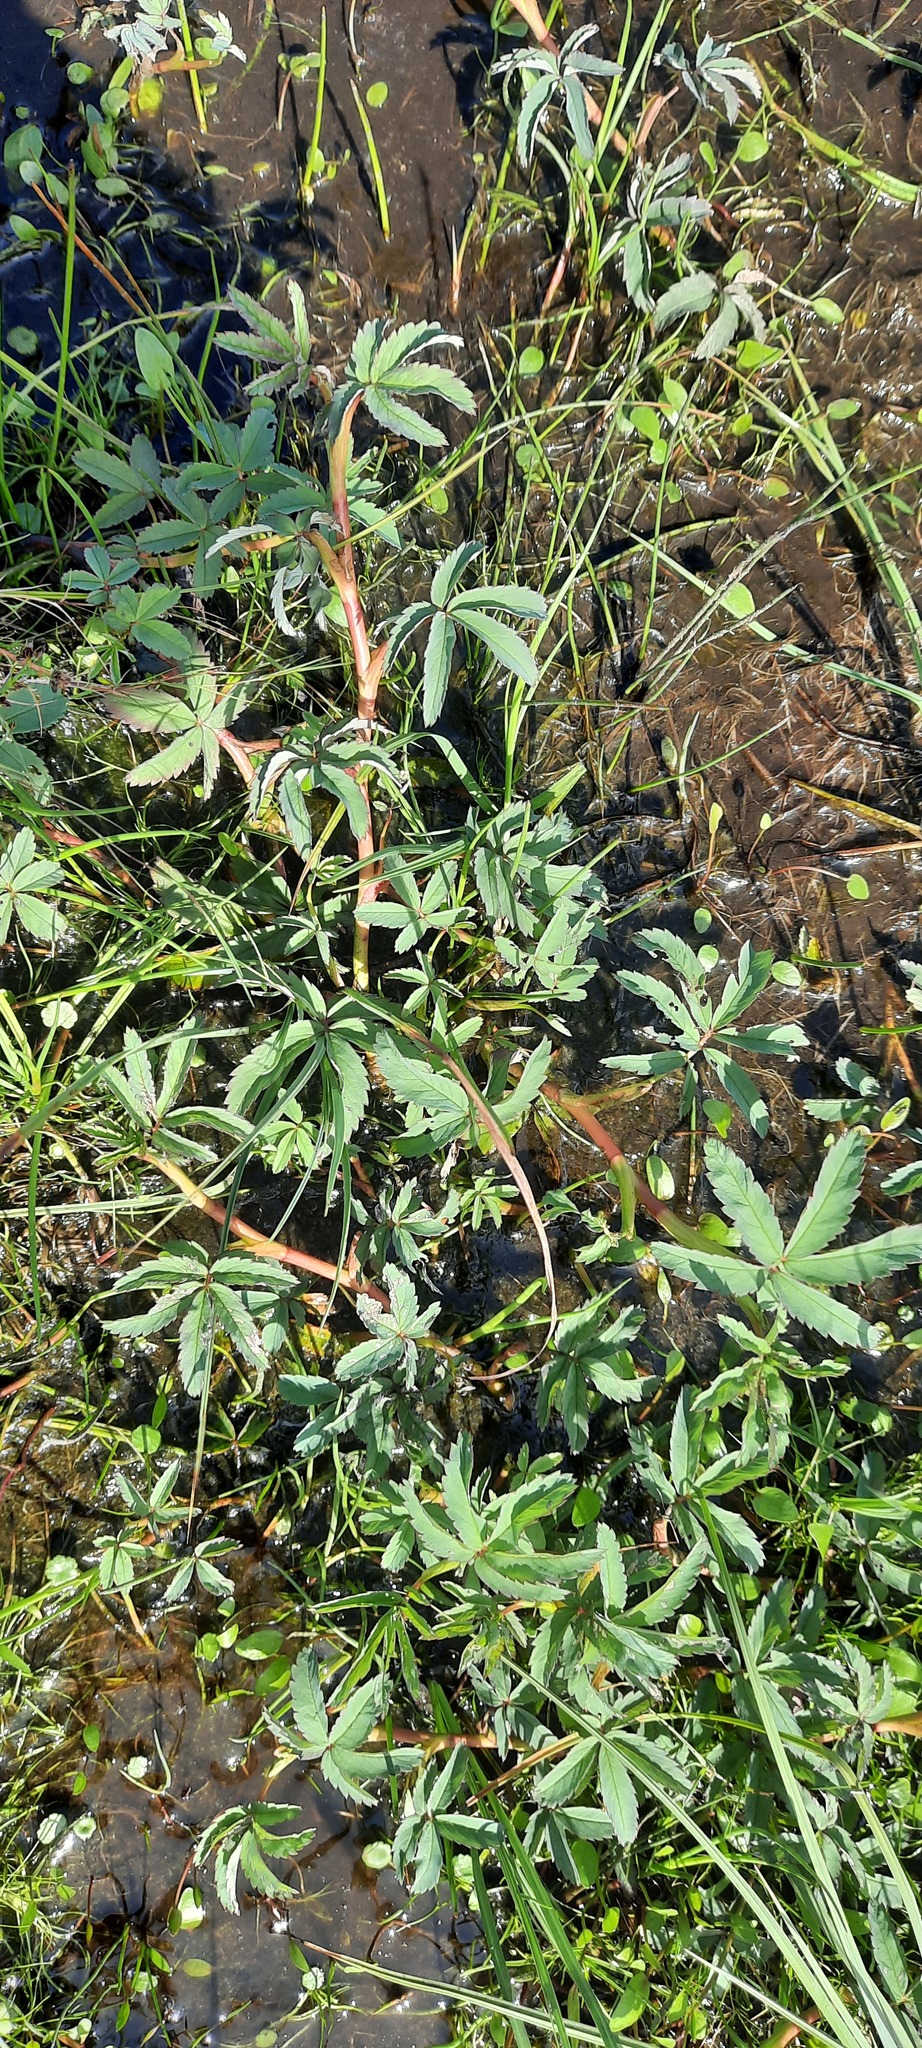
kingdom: Plantae
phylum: Tracheophyta
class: Magnoliopsida
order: Rosales
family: Rosaceae
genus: Comarum
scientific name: Comarum palustre
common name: Marsh cinquefoil
